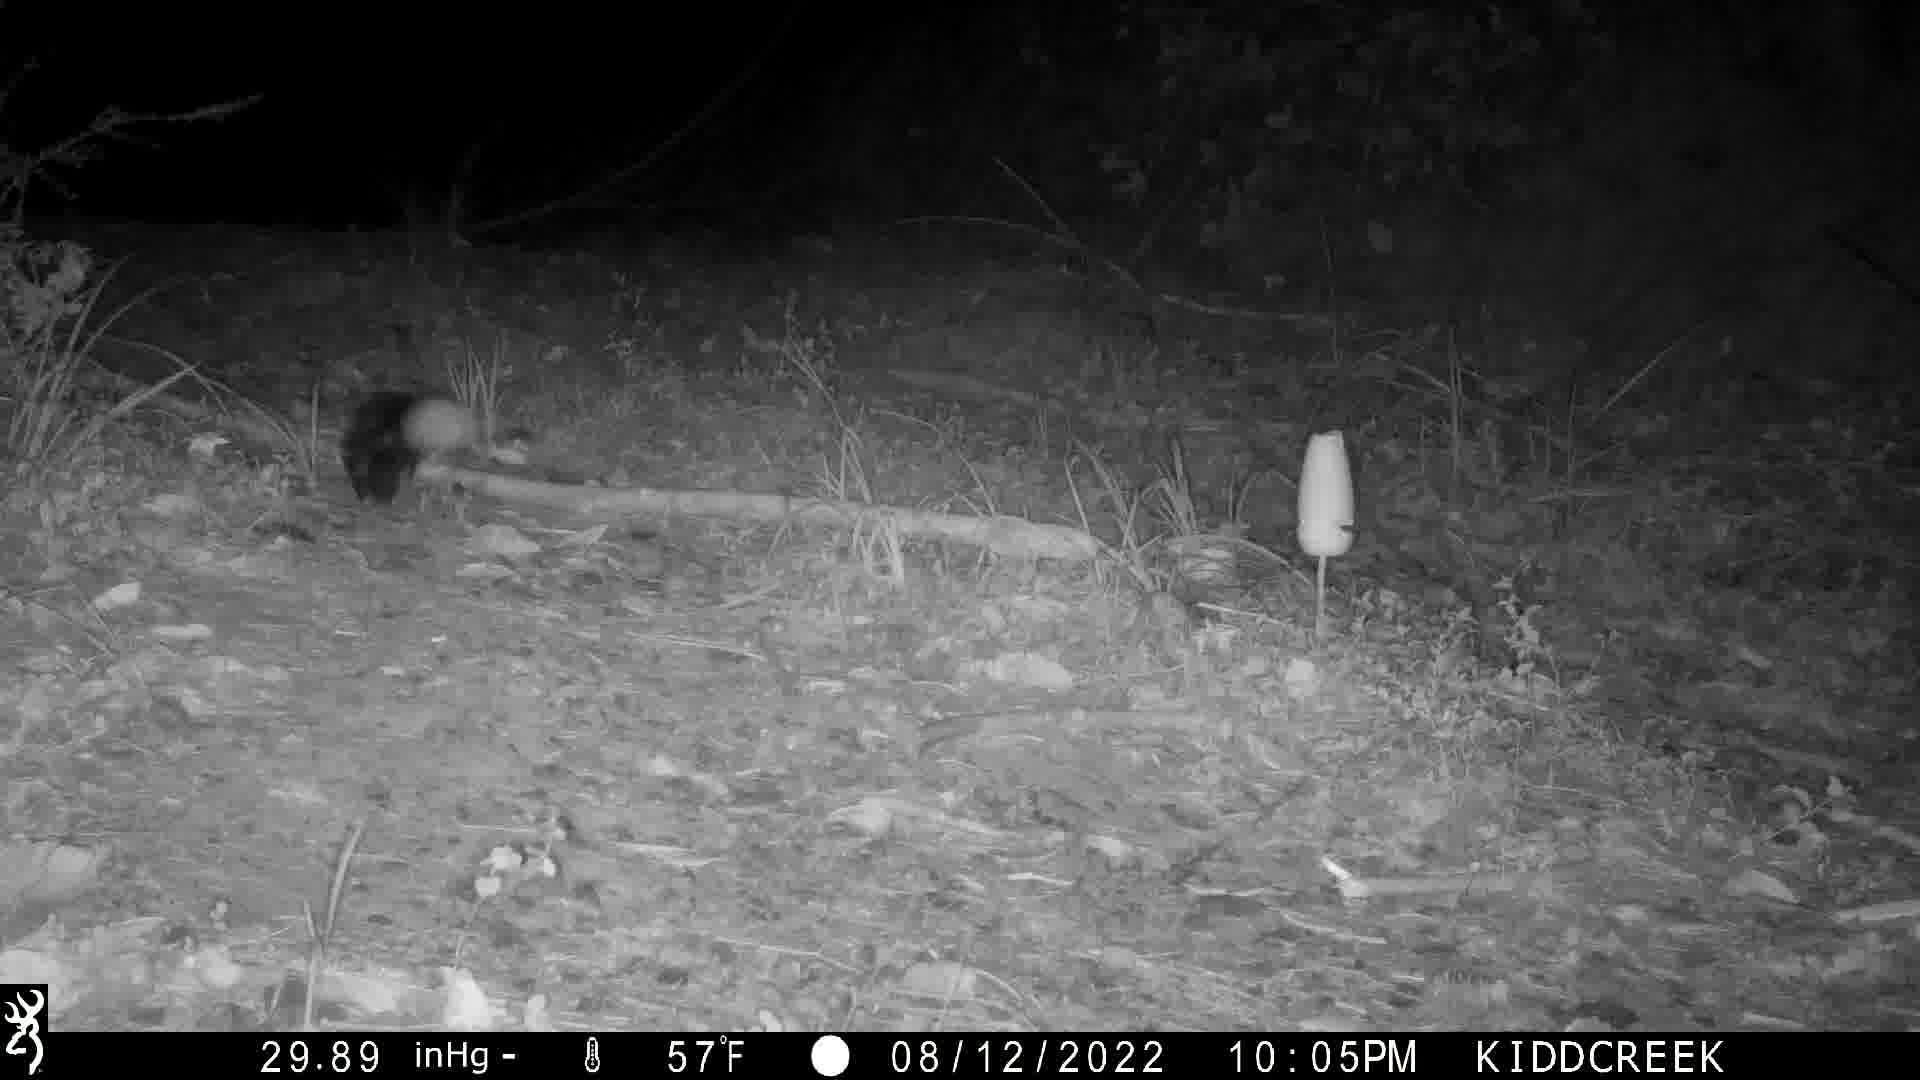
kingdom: Animalia
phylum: Chordata
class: Mammalia
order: Carnivora
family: Mephitidae
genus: Spilogale
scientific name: Spilogale gracilis
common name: Western spotted skunk
